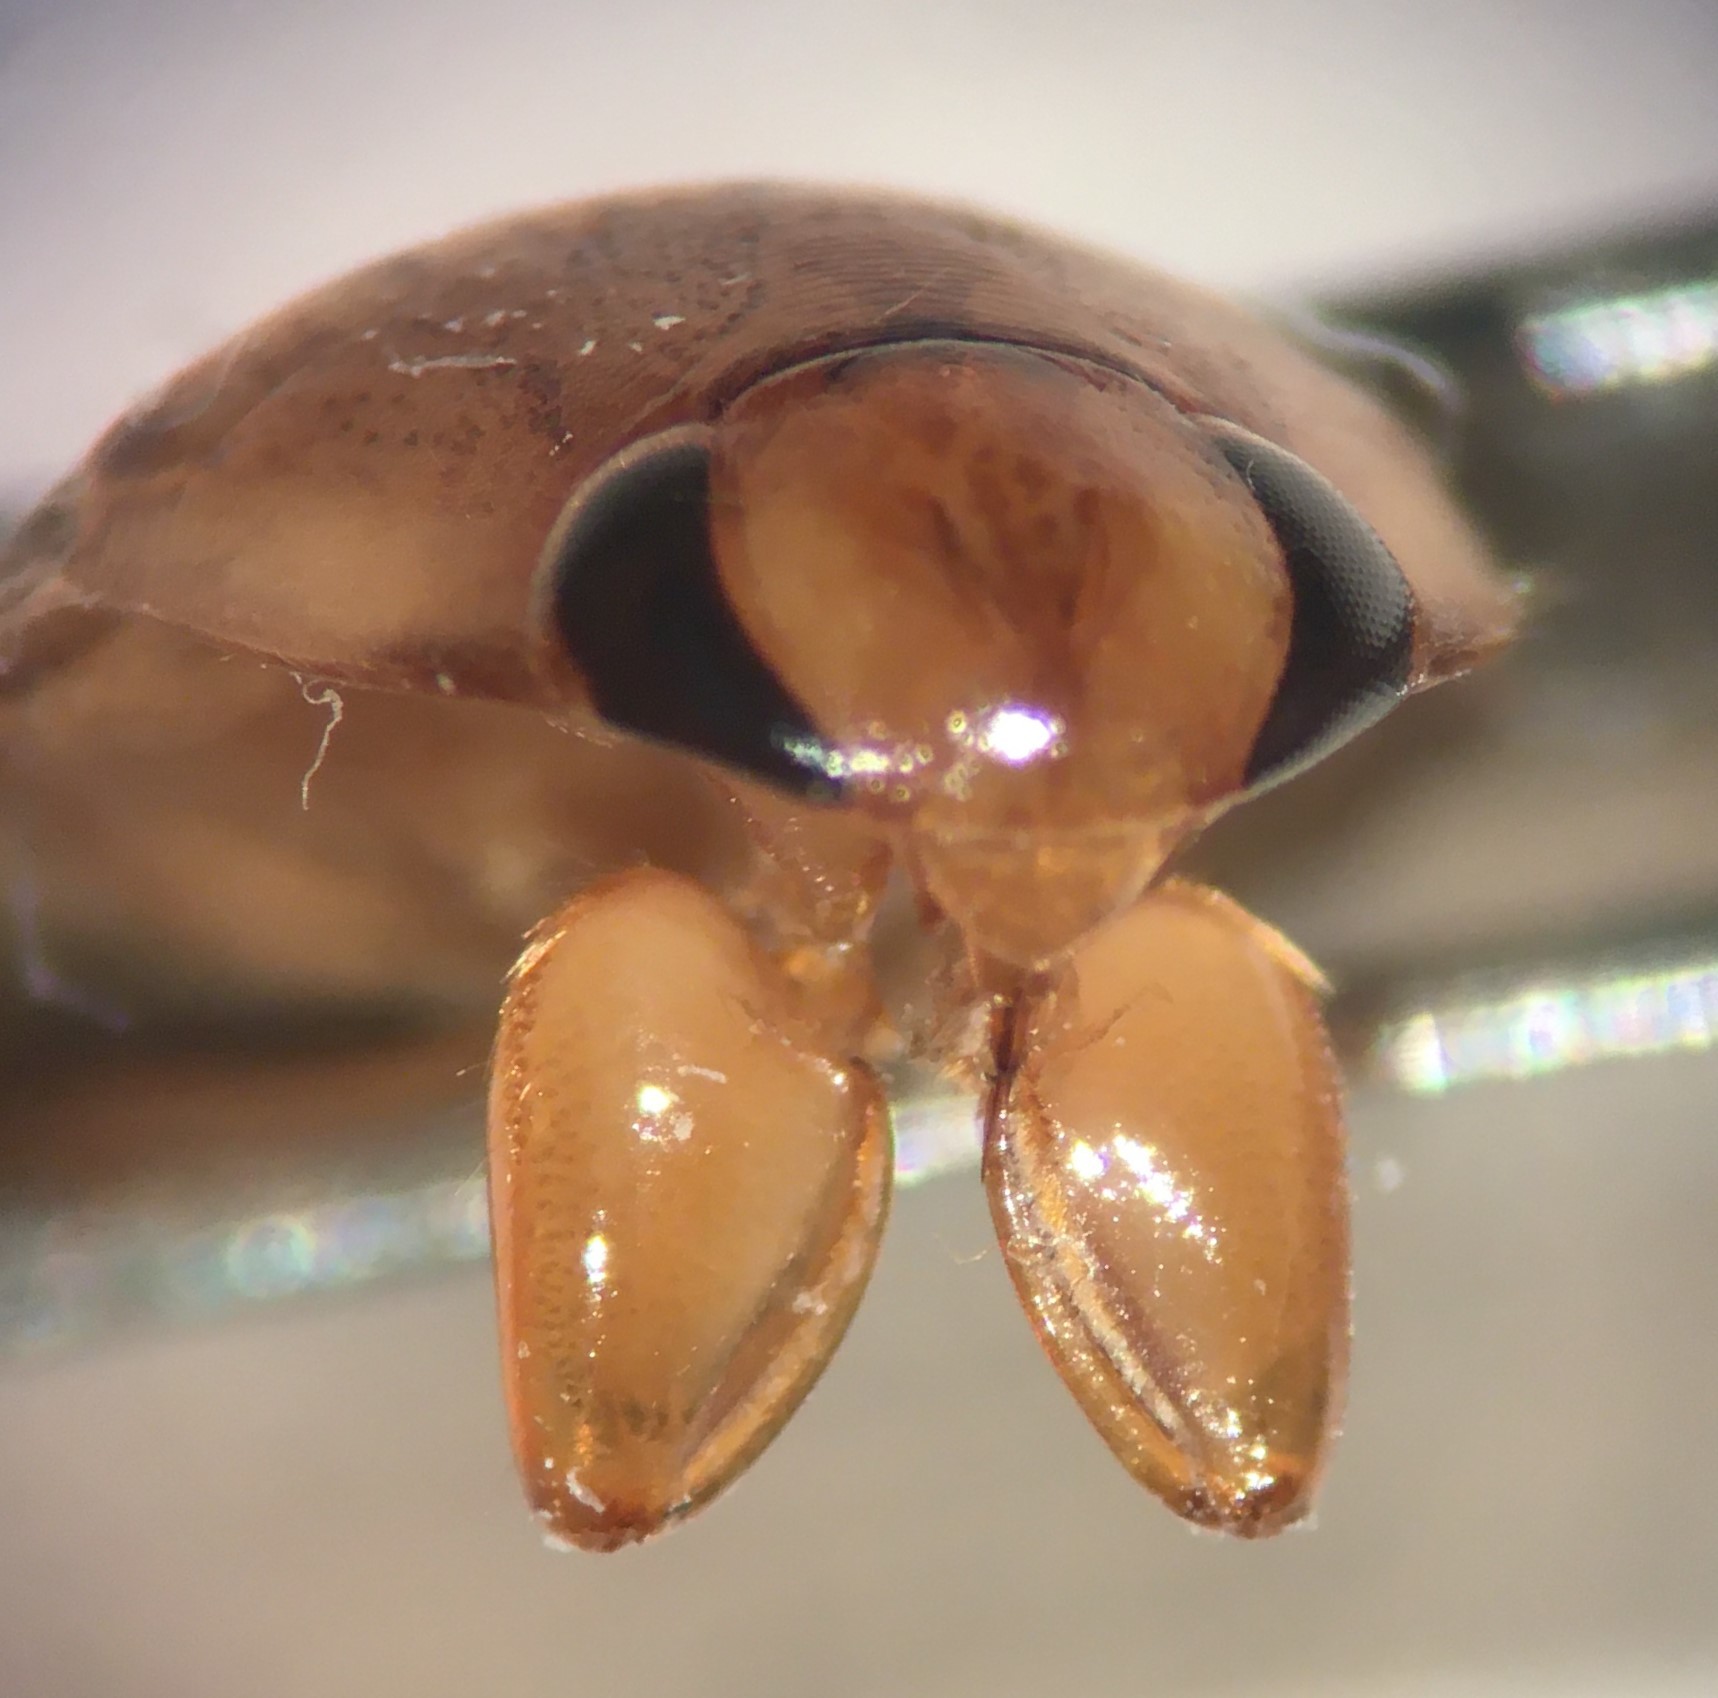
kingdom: Animalia
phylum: Arthropoda
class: Insecta
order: Hemiptera
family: Naucoridae
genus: Pelocoris
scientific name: Pelocoris carolinensis
